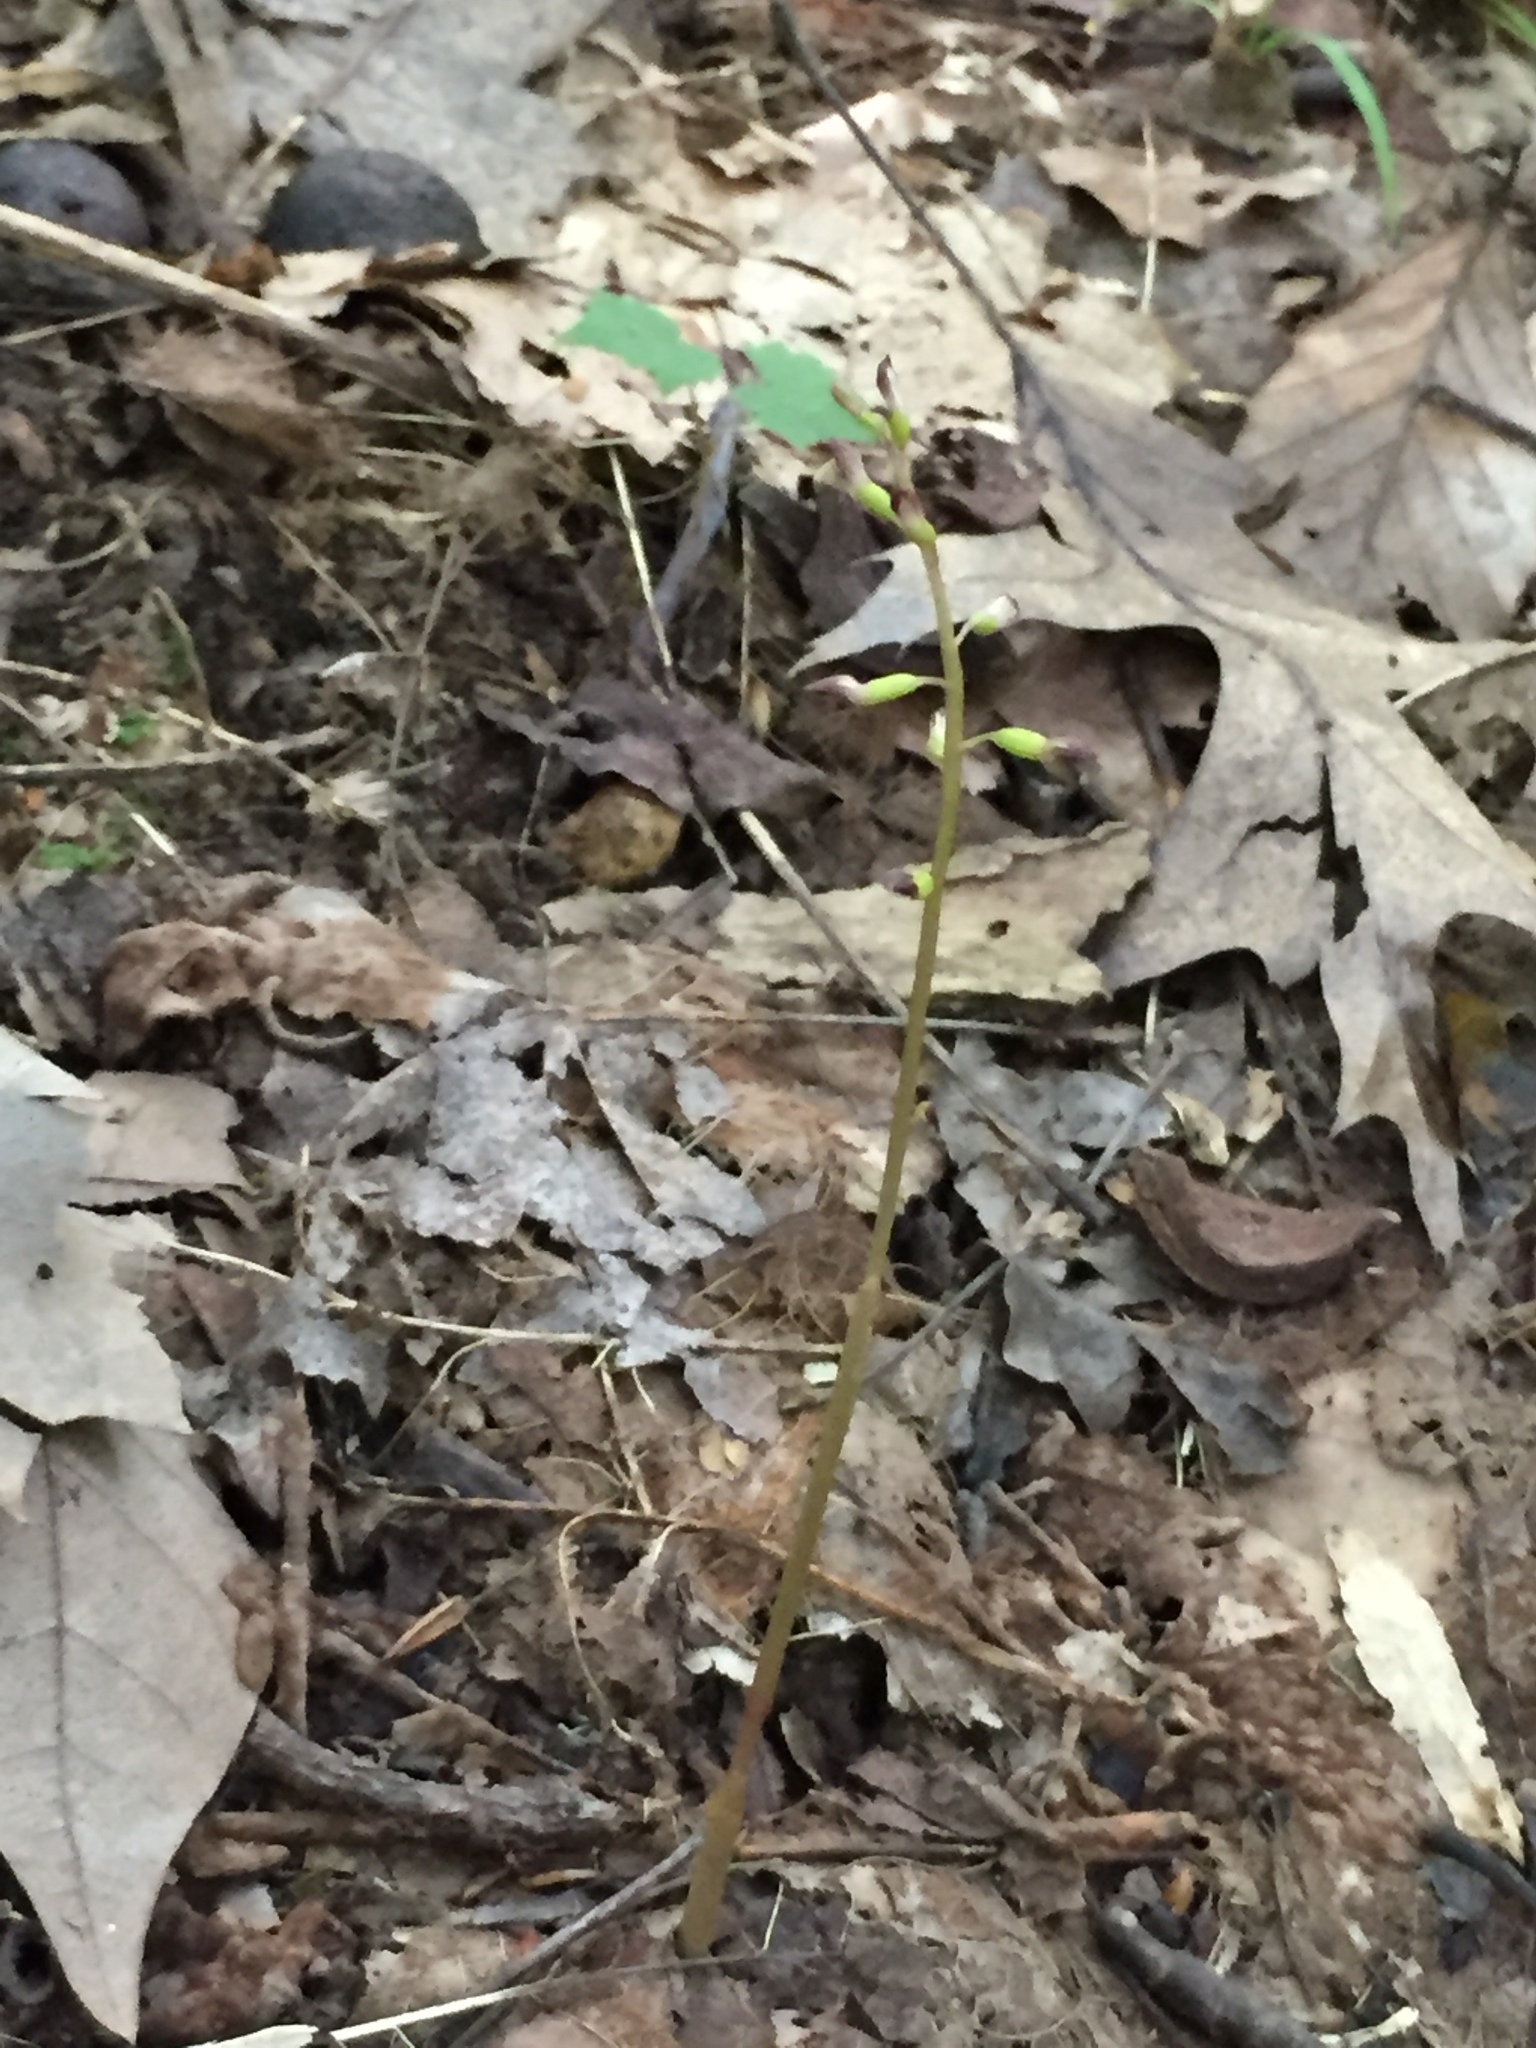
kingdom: Plantae
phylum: Tracheophyta
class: Liliopsida
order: Asparagales
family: Orchidaceae
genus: Corallorhiza
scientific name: Corallorhiza odontorhiza
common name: Autumn coralroot
